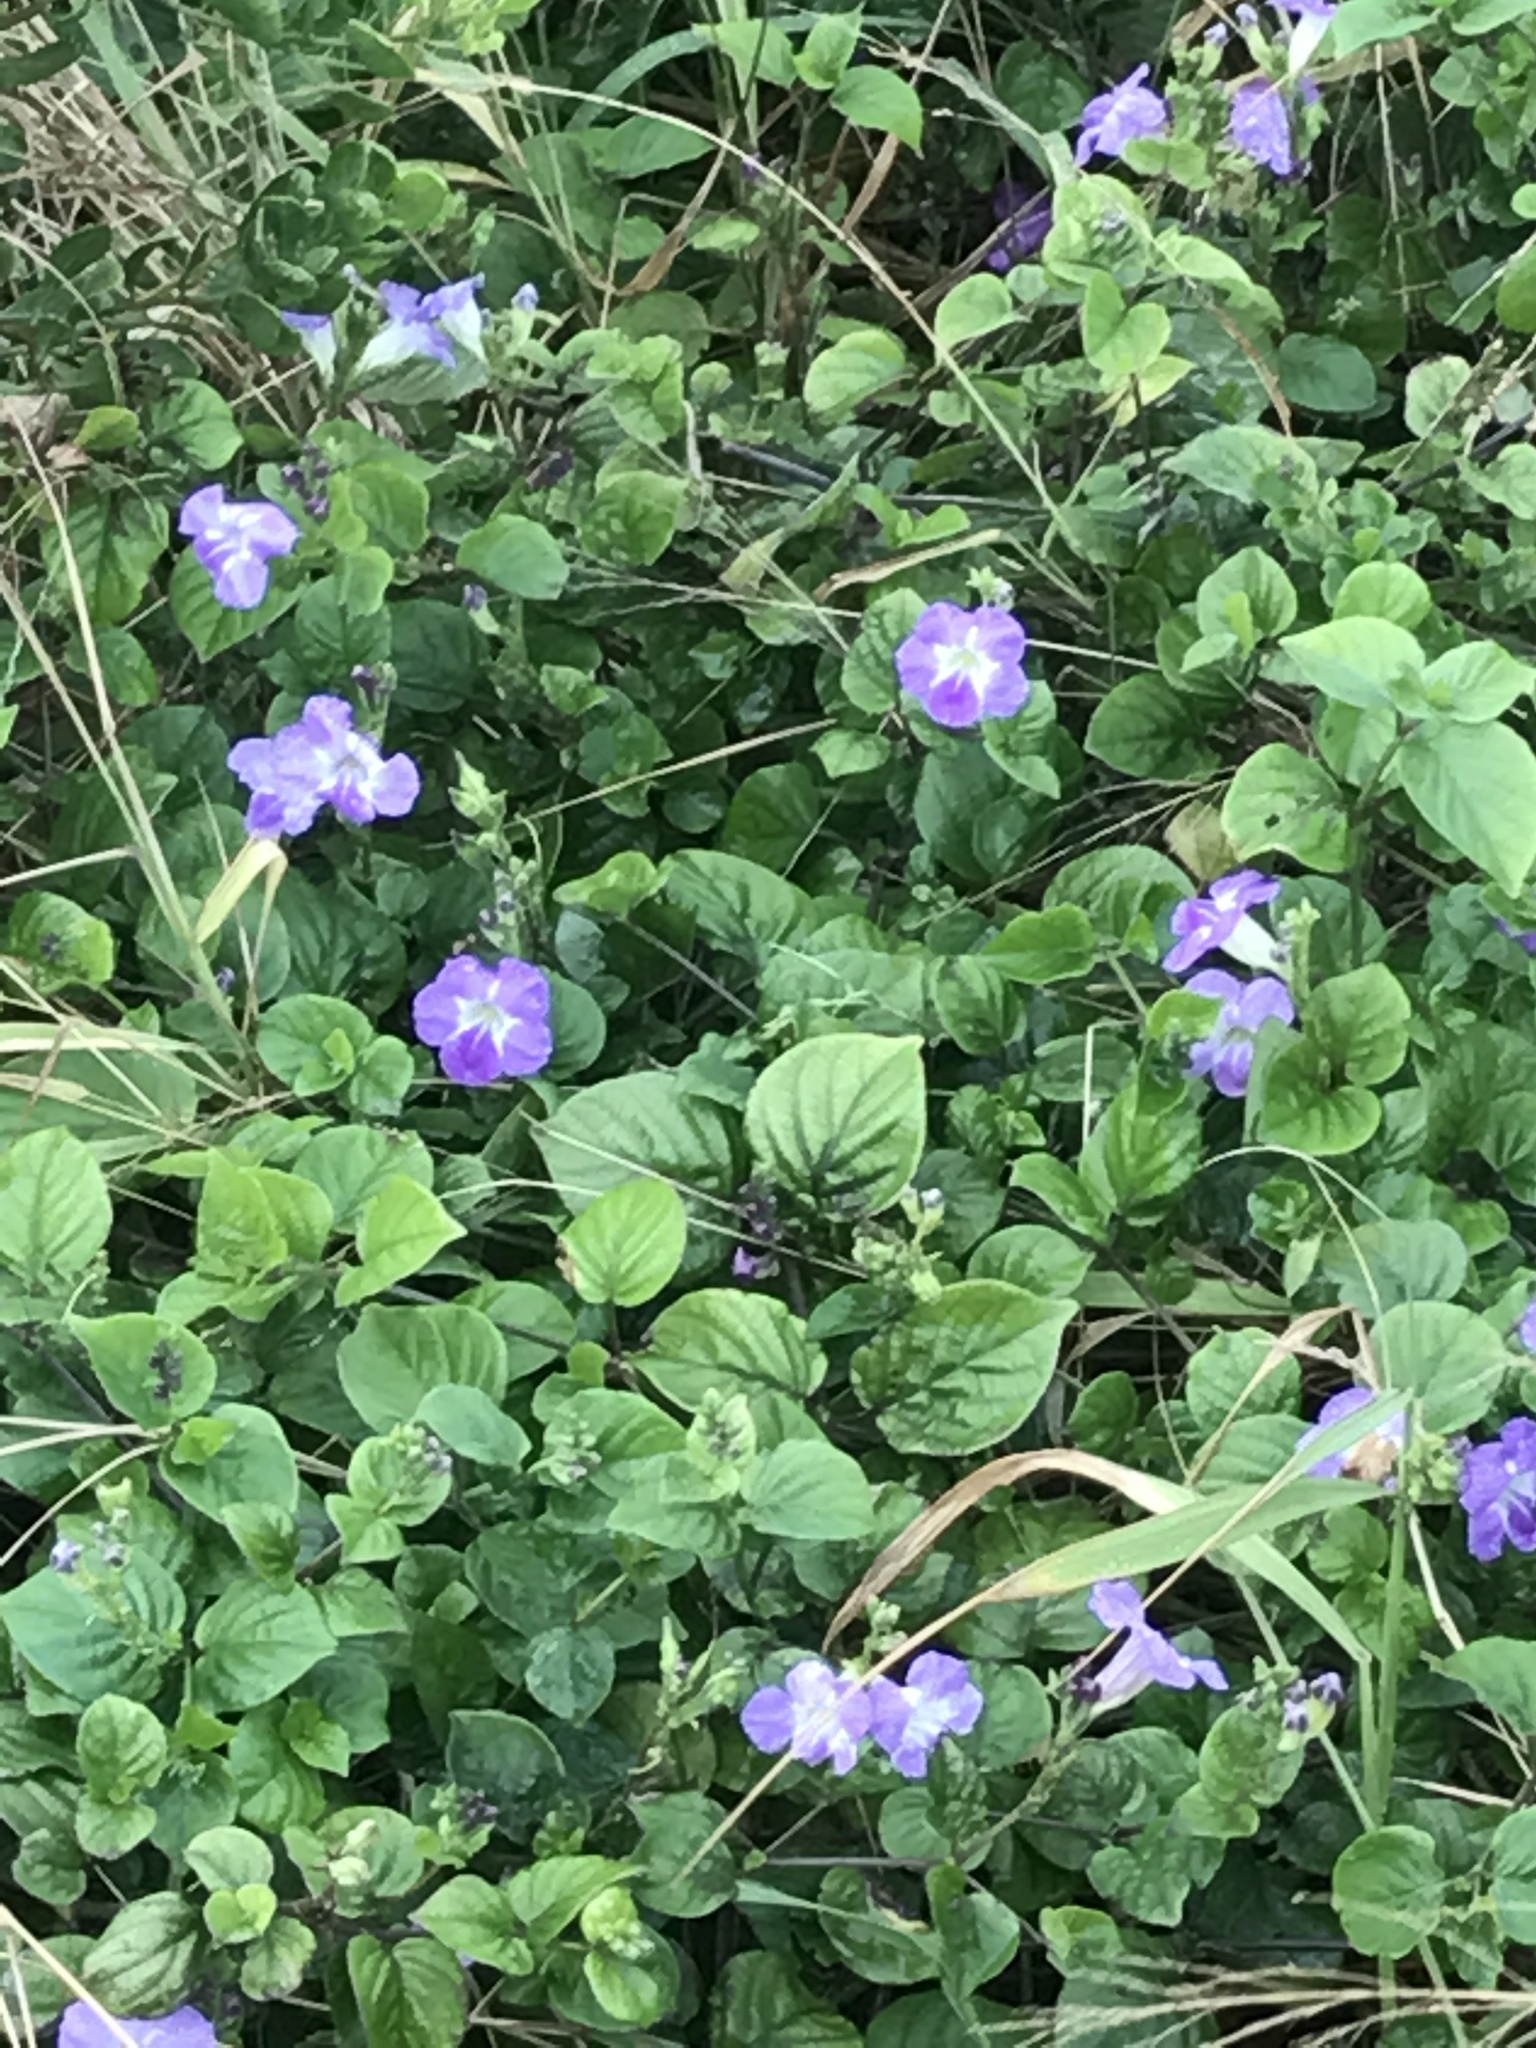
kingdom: Plantae
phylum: Tracheophyta
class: Magnoliopsida
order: Lamiales
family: Acanthaceae
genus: Asystasia
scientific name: Asystasia gangetica
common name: Chinese violet
